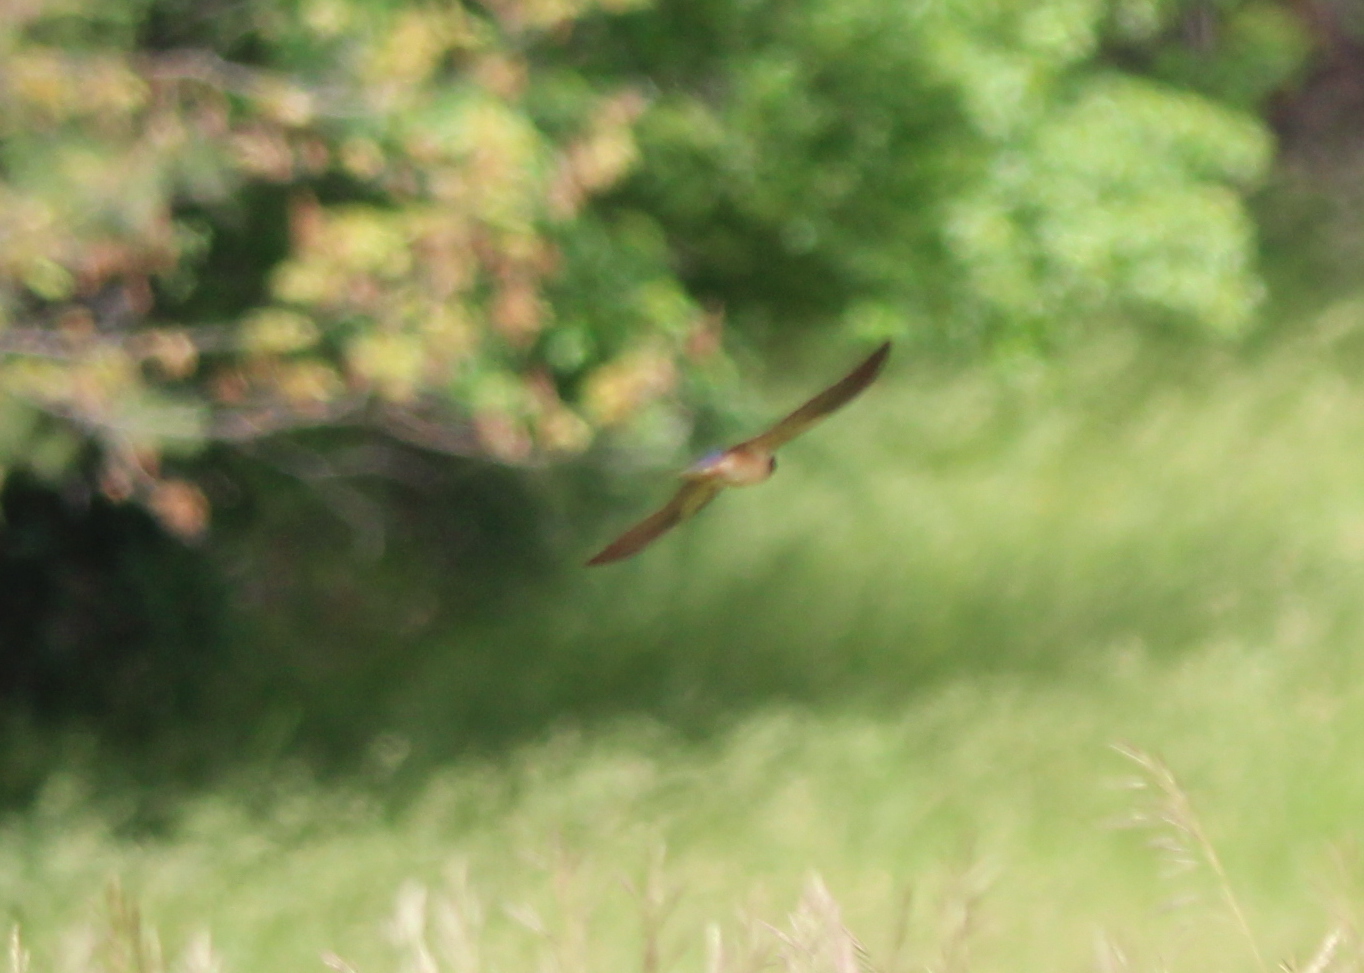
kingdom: Animalia
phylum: Chordata
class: Aves
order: Passeriformes
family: Hirundinidae
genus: Hirundo
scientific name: Hirundo rustica
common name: Barn swallow
